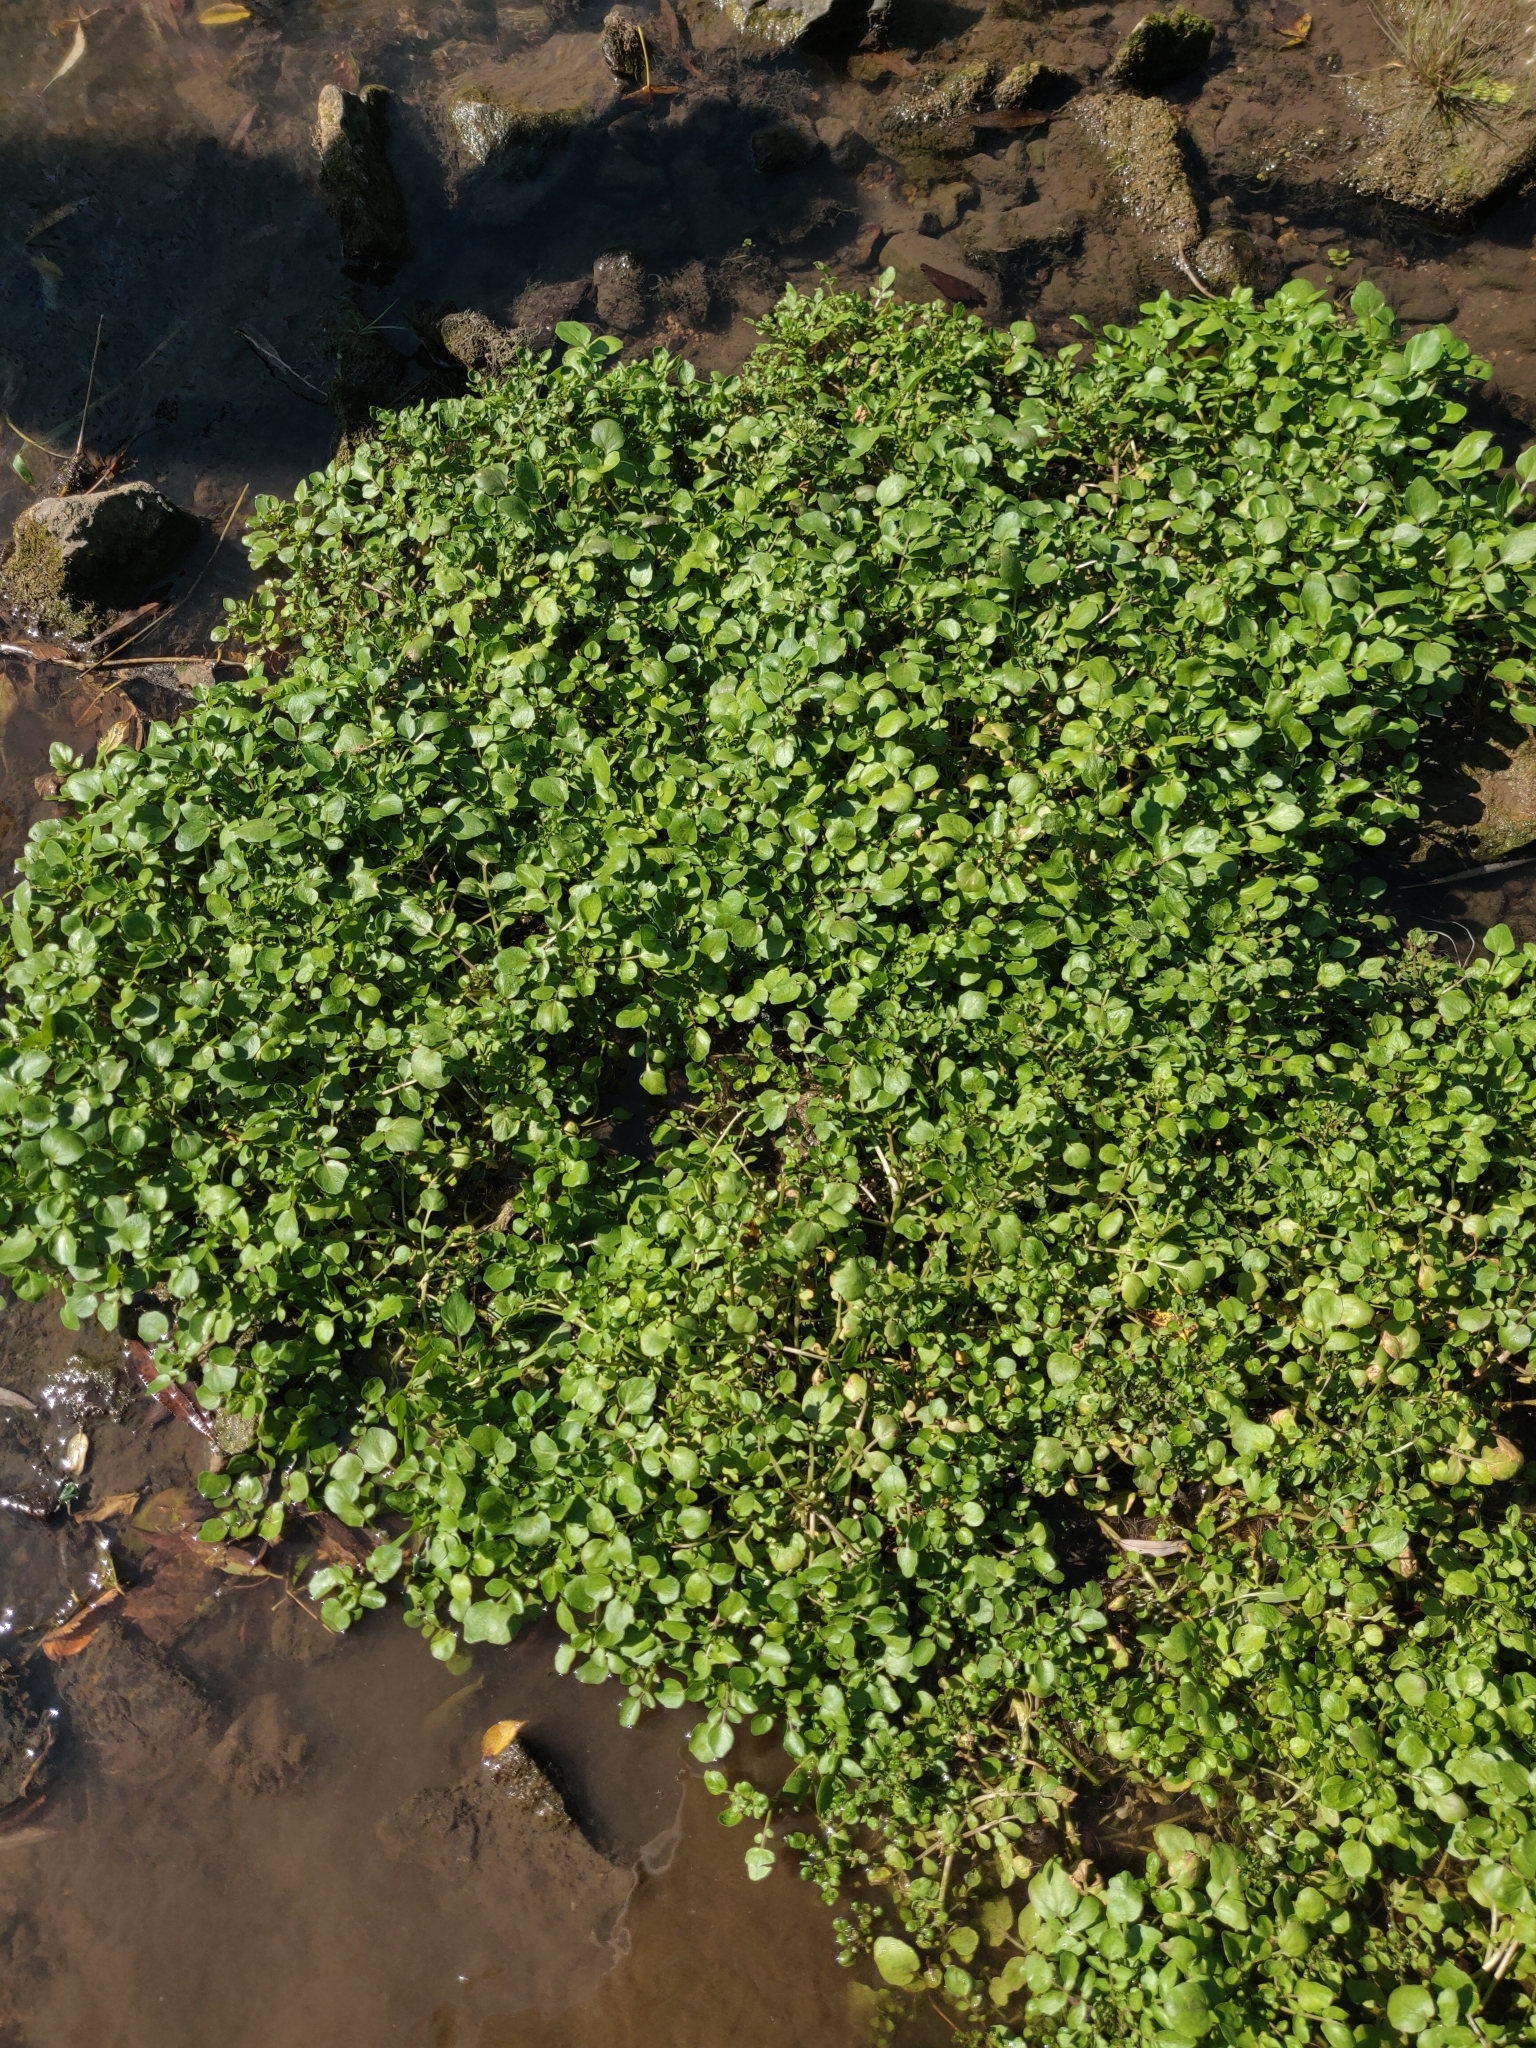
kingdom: Plantae
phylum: Tracheophyta
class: Magnoliopsida
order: Brassicales
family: Brassicaceae
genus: Nasturtium
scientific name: Nasturtium officinale
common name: Watercress
